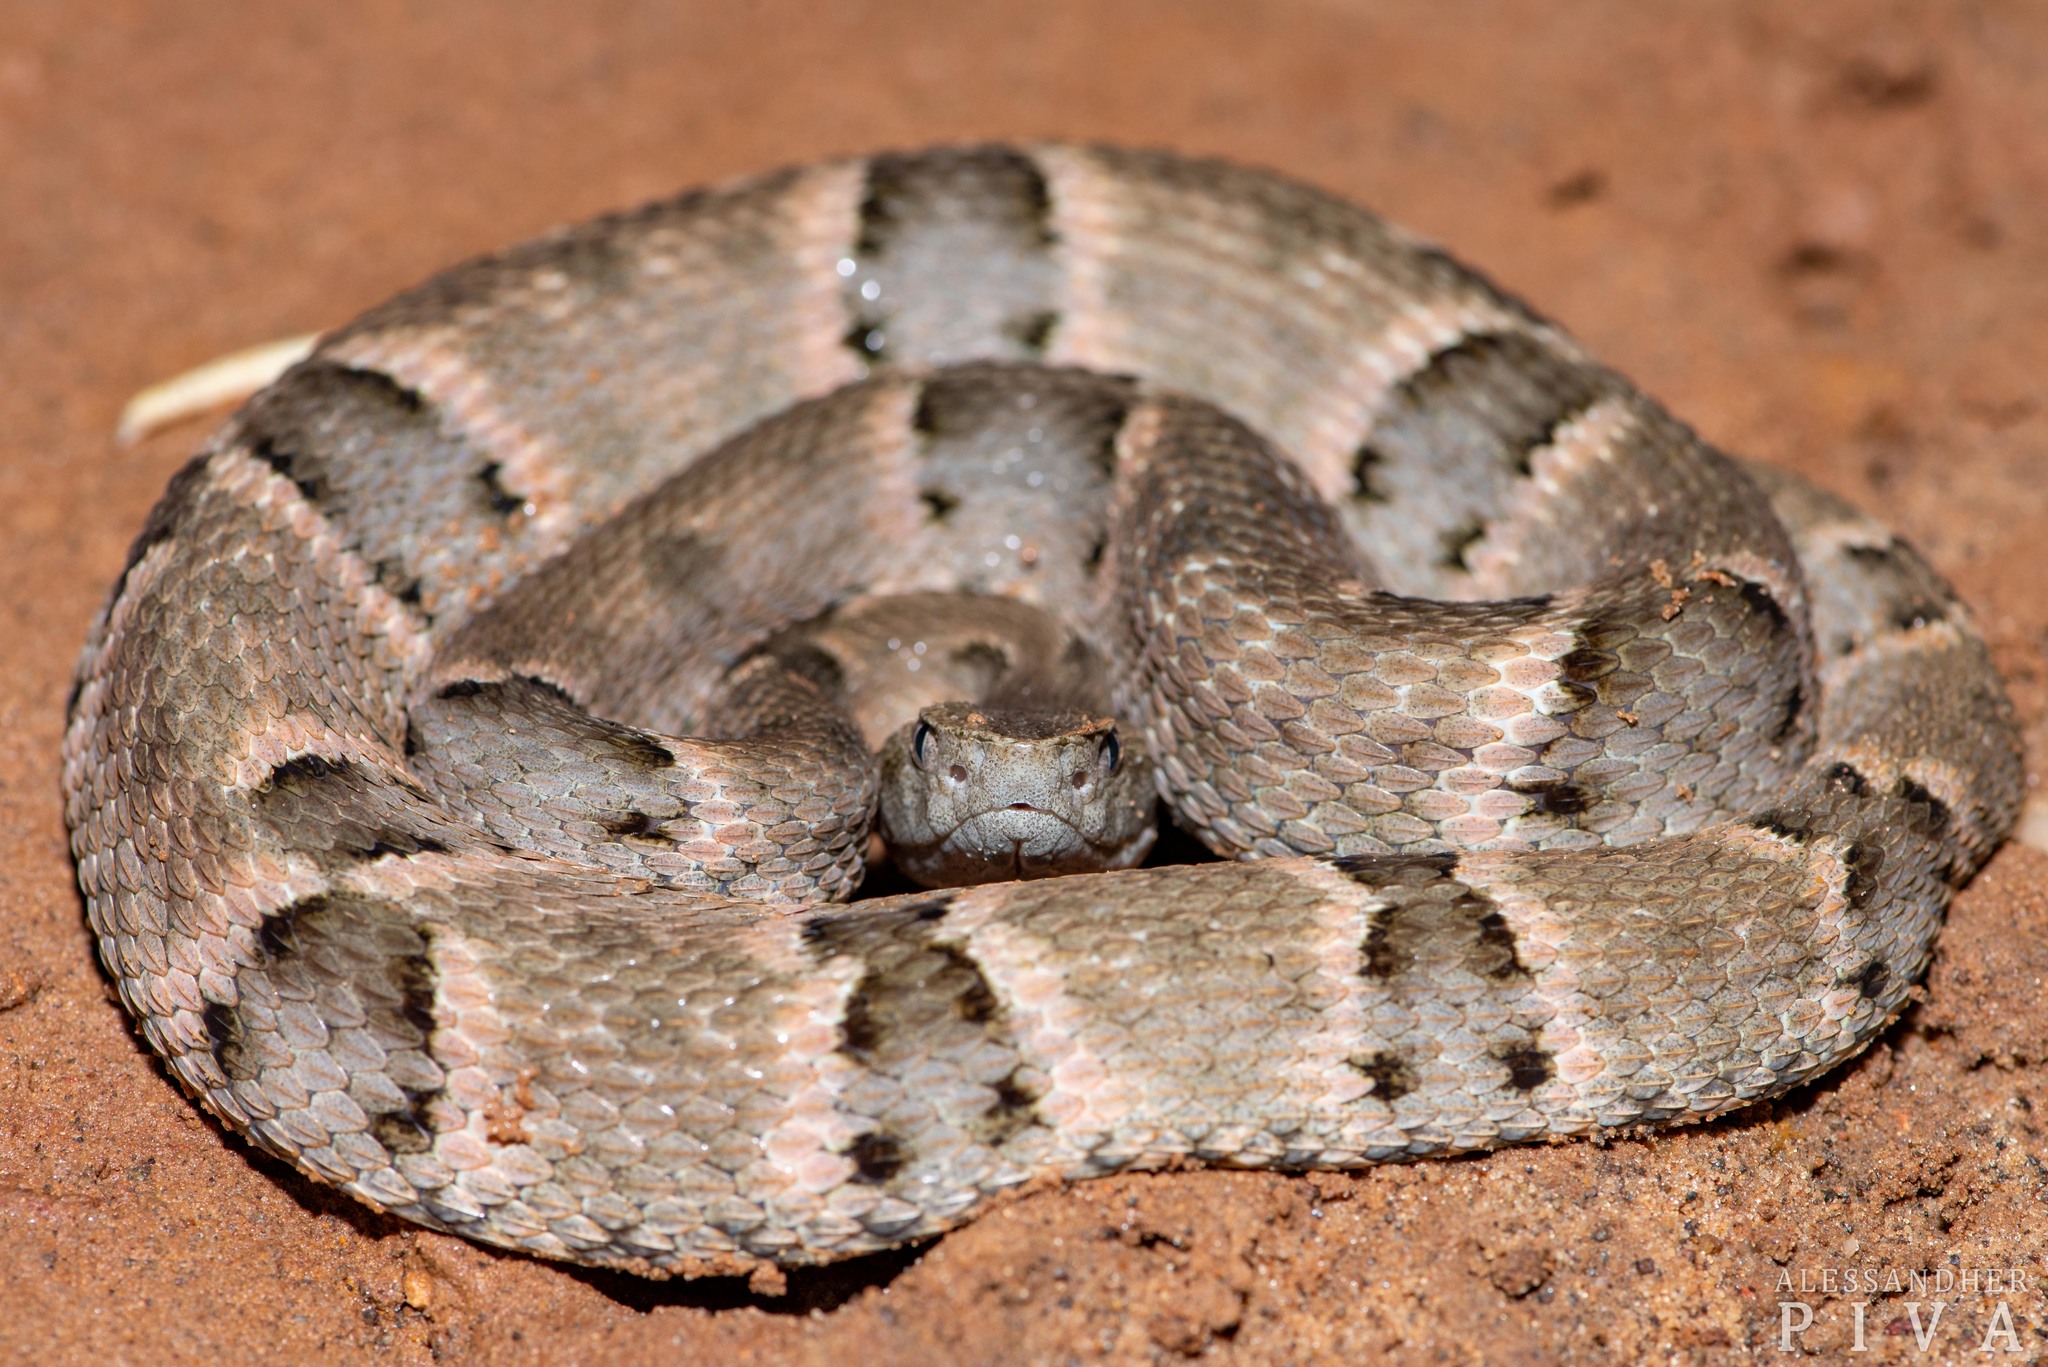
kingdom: Animalia
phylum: Chordata
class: Squamata
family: Viperidae
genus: Bothrops
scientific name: Bothrops moojeni
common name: Brazilian lancehead
